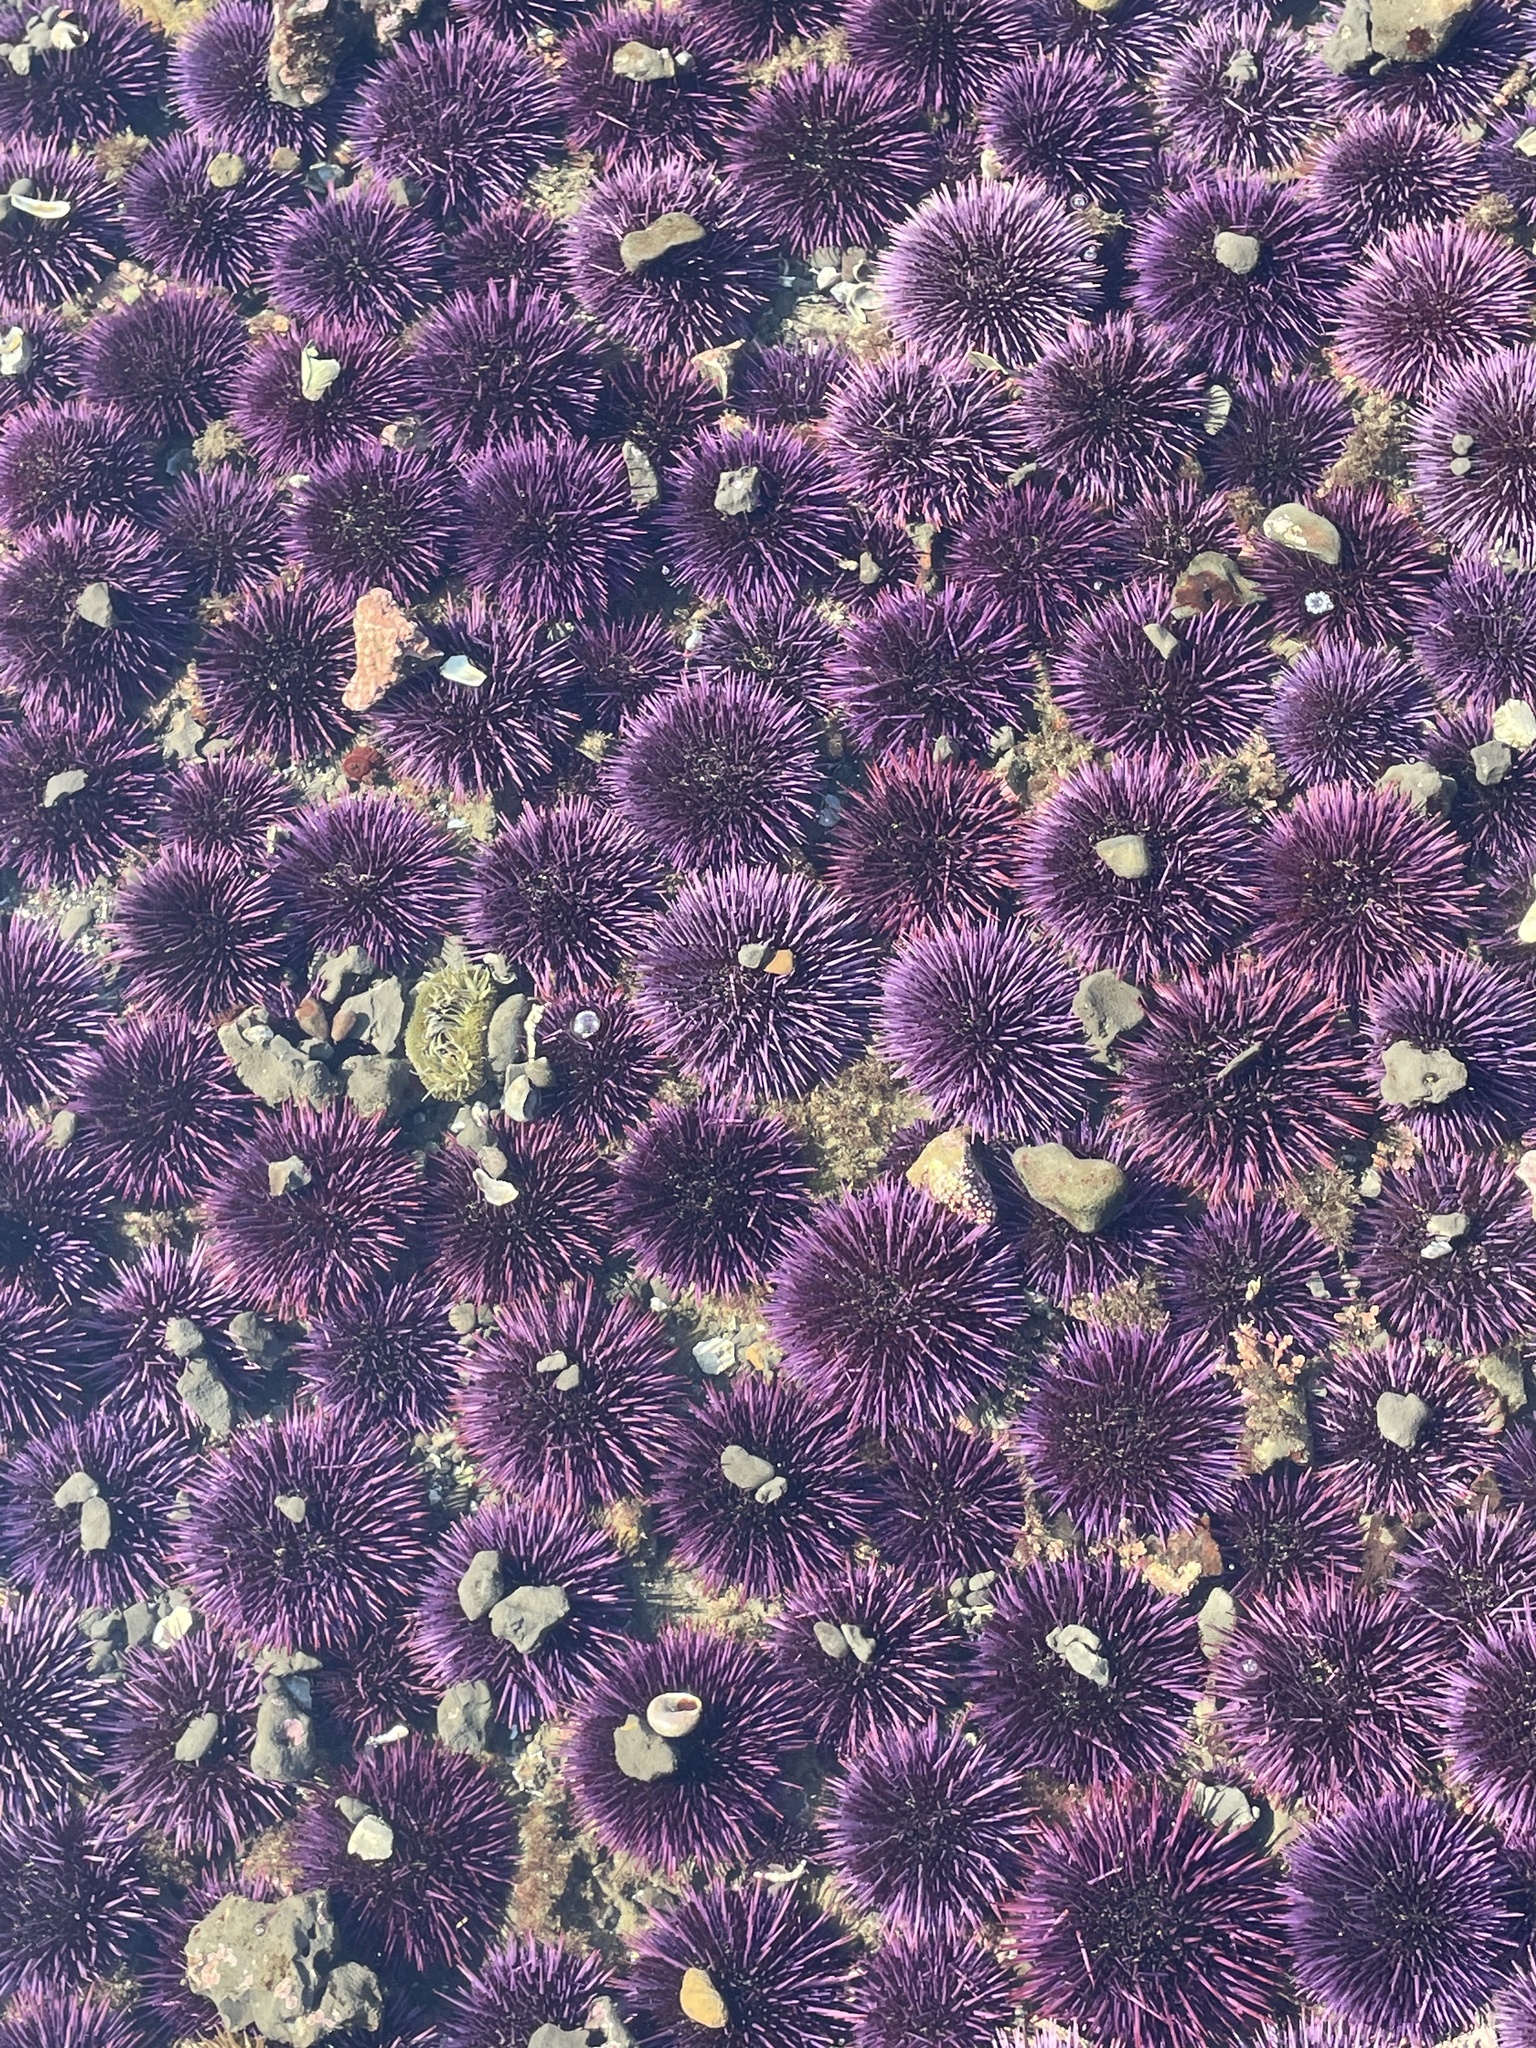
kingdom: Animalia
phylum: Echinodermata
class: Echinoidea
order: Camarodonta
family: Strongylocentrotidae
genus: Strongylocentrotus
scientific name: Strongylocentrotus purpuratus
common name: Purple sea urchin
